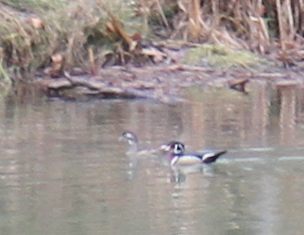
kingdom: Animalia
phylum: Chordata
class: Aves
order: Anseriformes
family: Anatidae
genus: Aix
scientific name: Aix sponsa
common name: Wood duck
